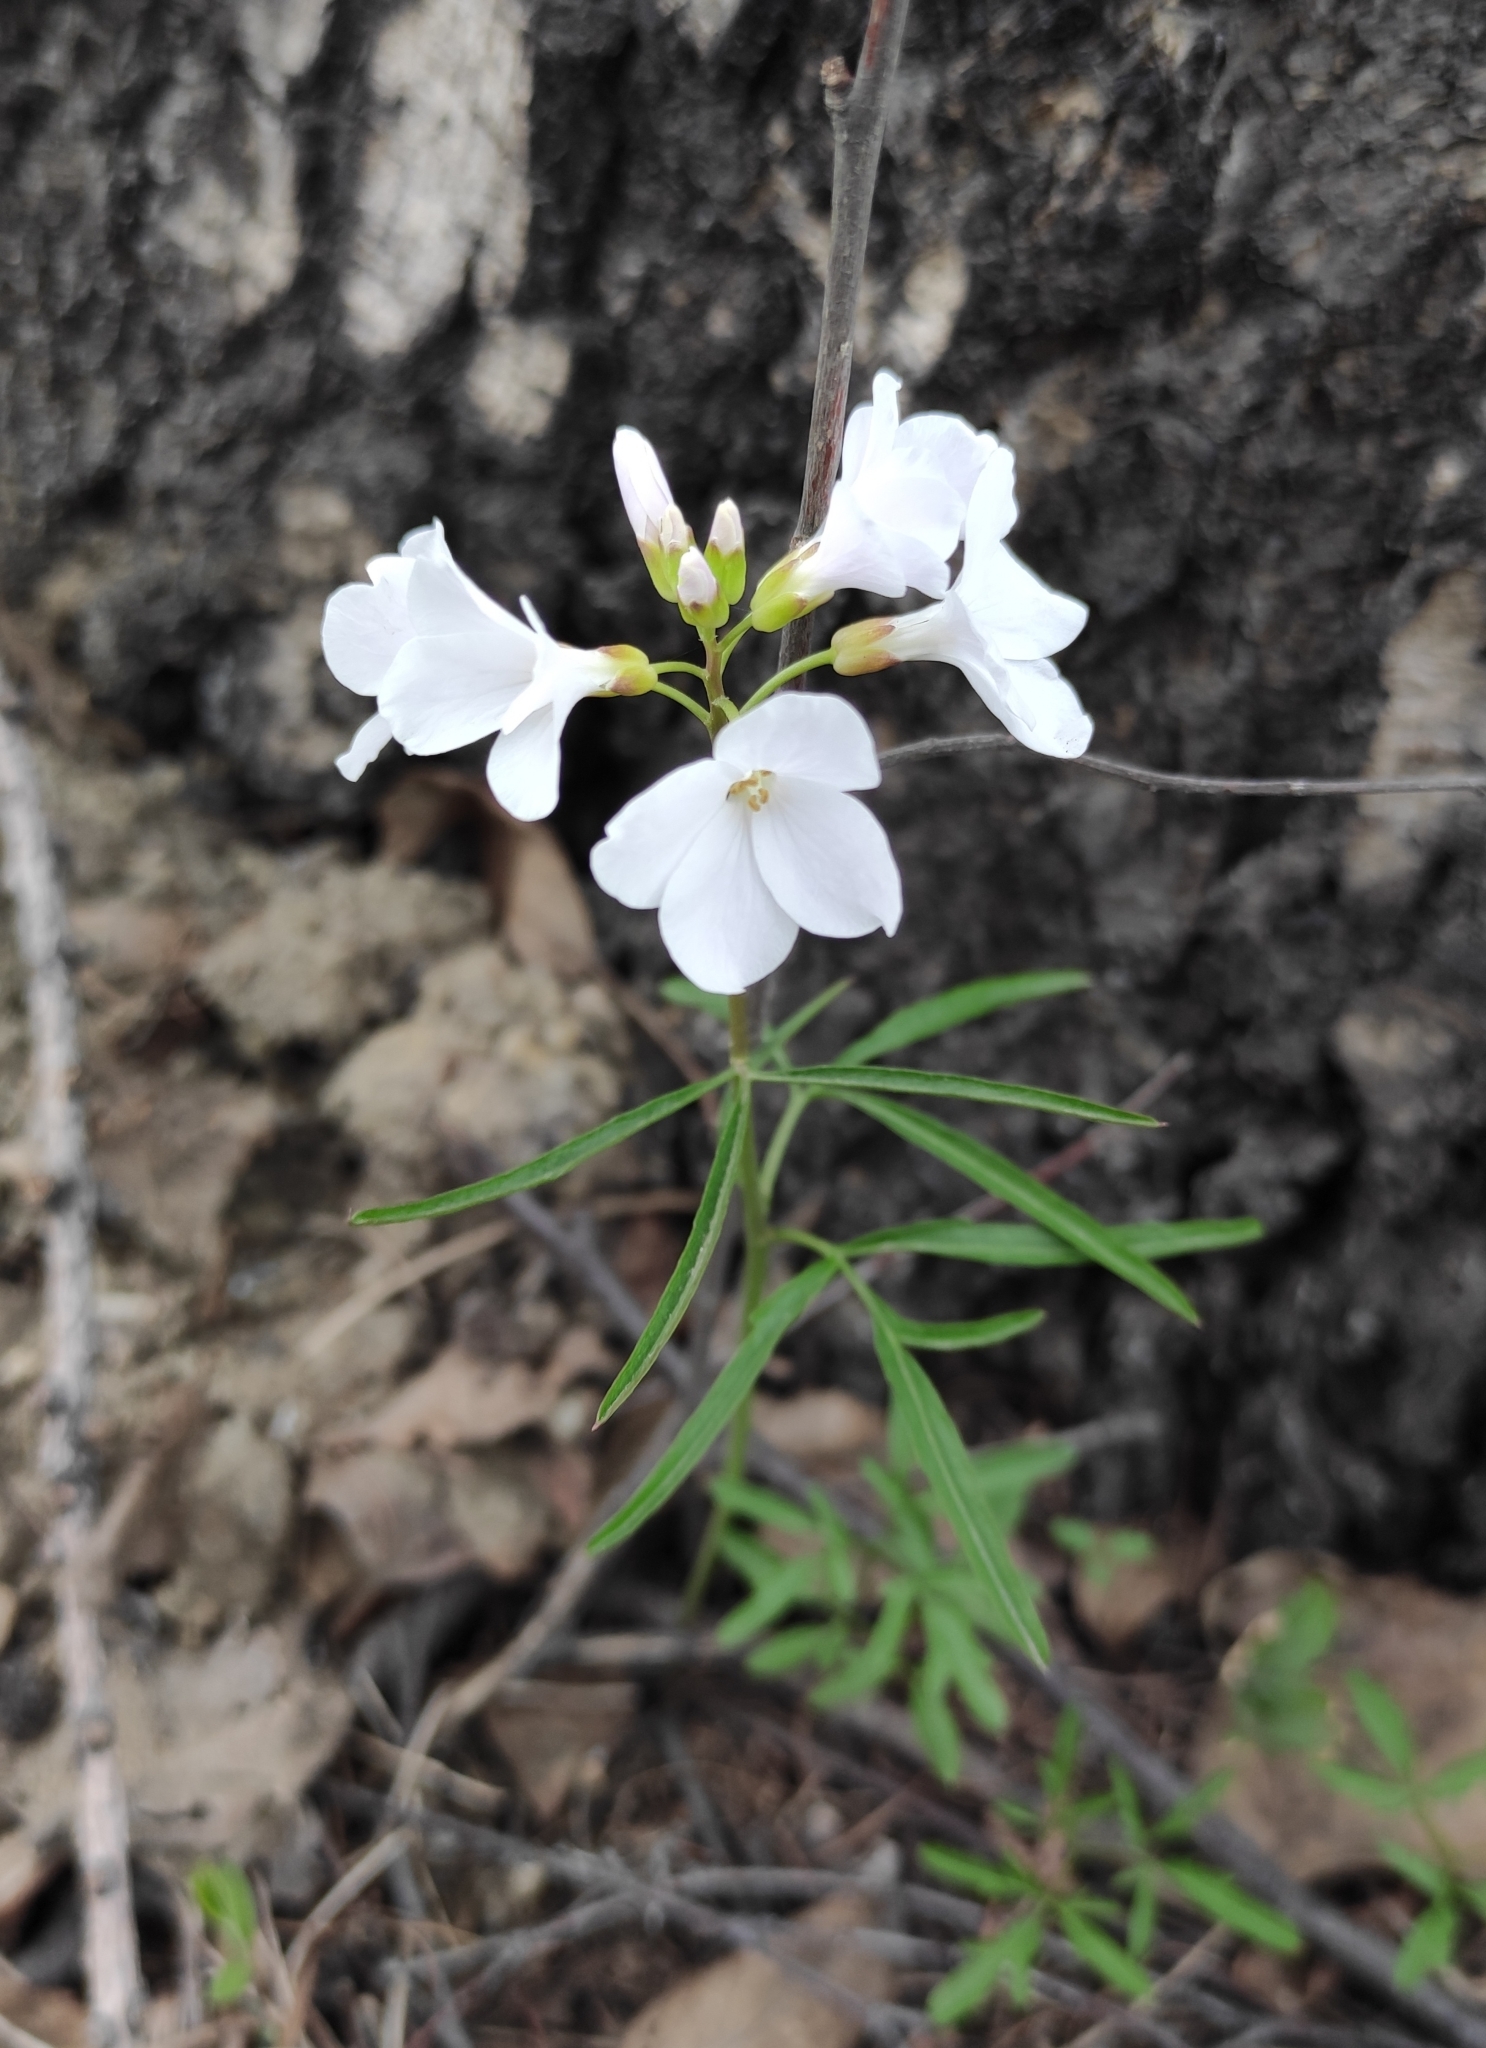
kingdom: Plantae
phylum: Tracheophyta
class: Magnoliopsida
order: Brassicales
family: Brassicaceae
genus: Cardamine
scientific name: Cardamine trifida
